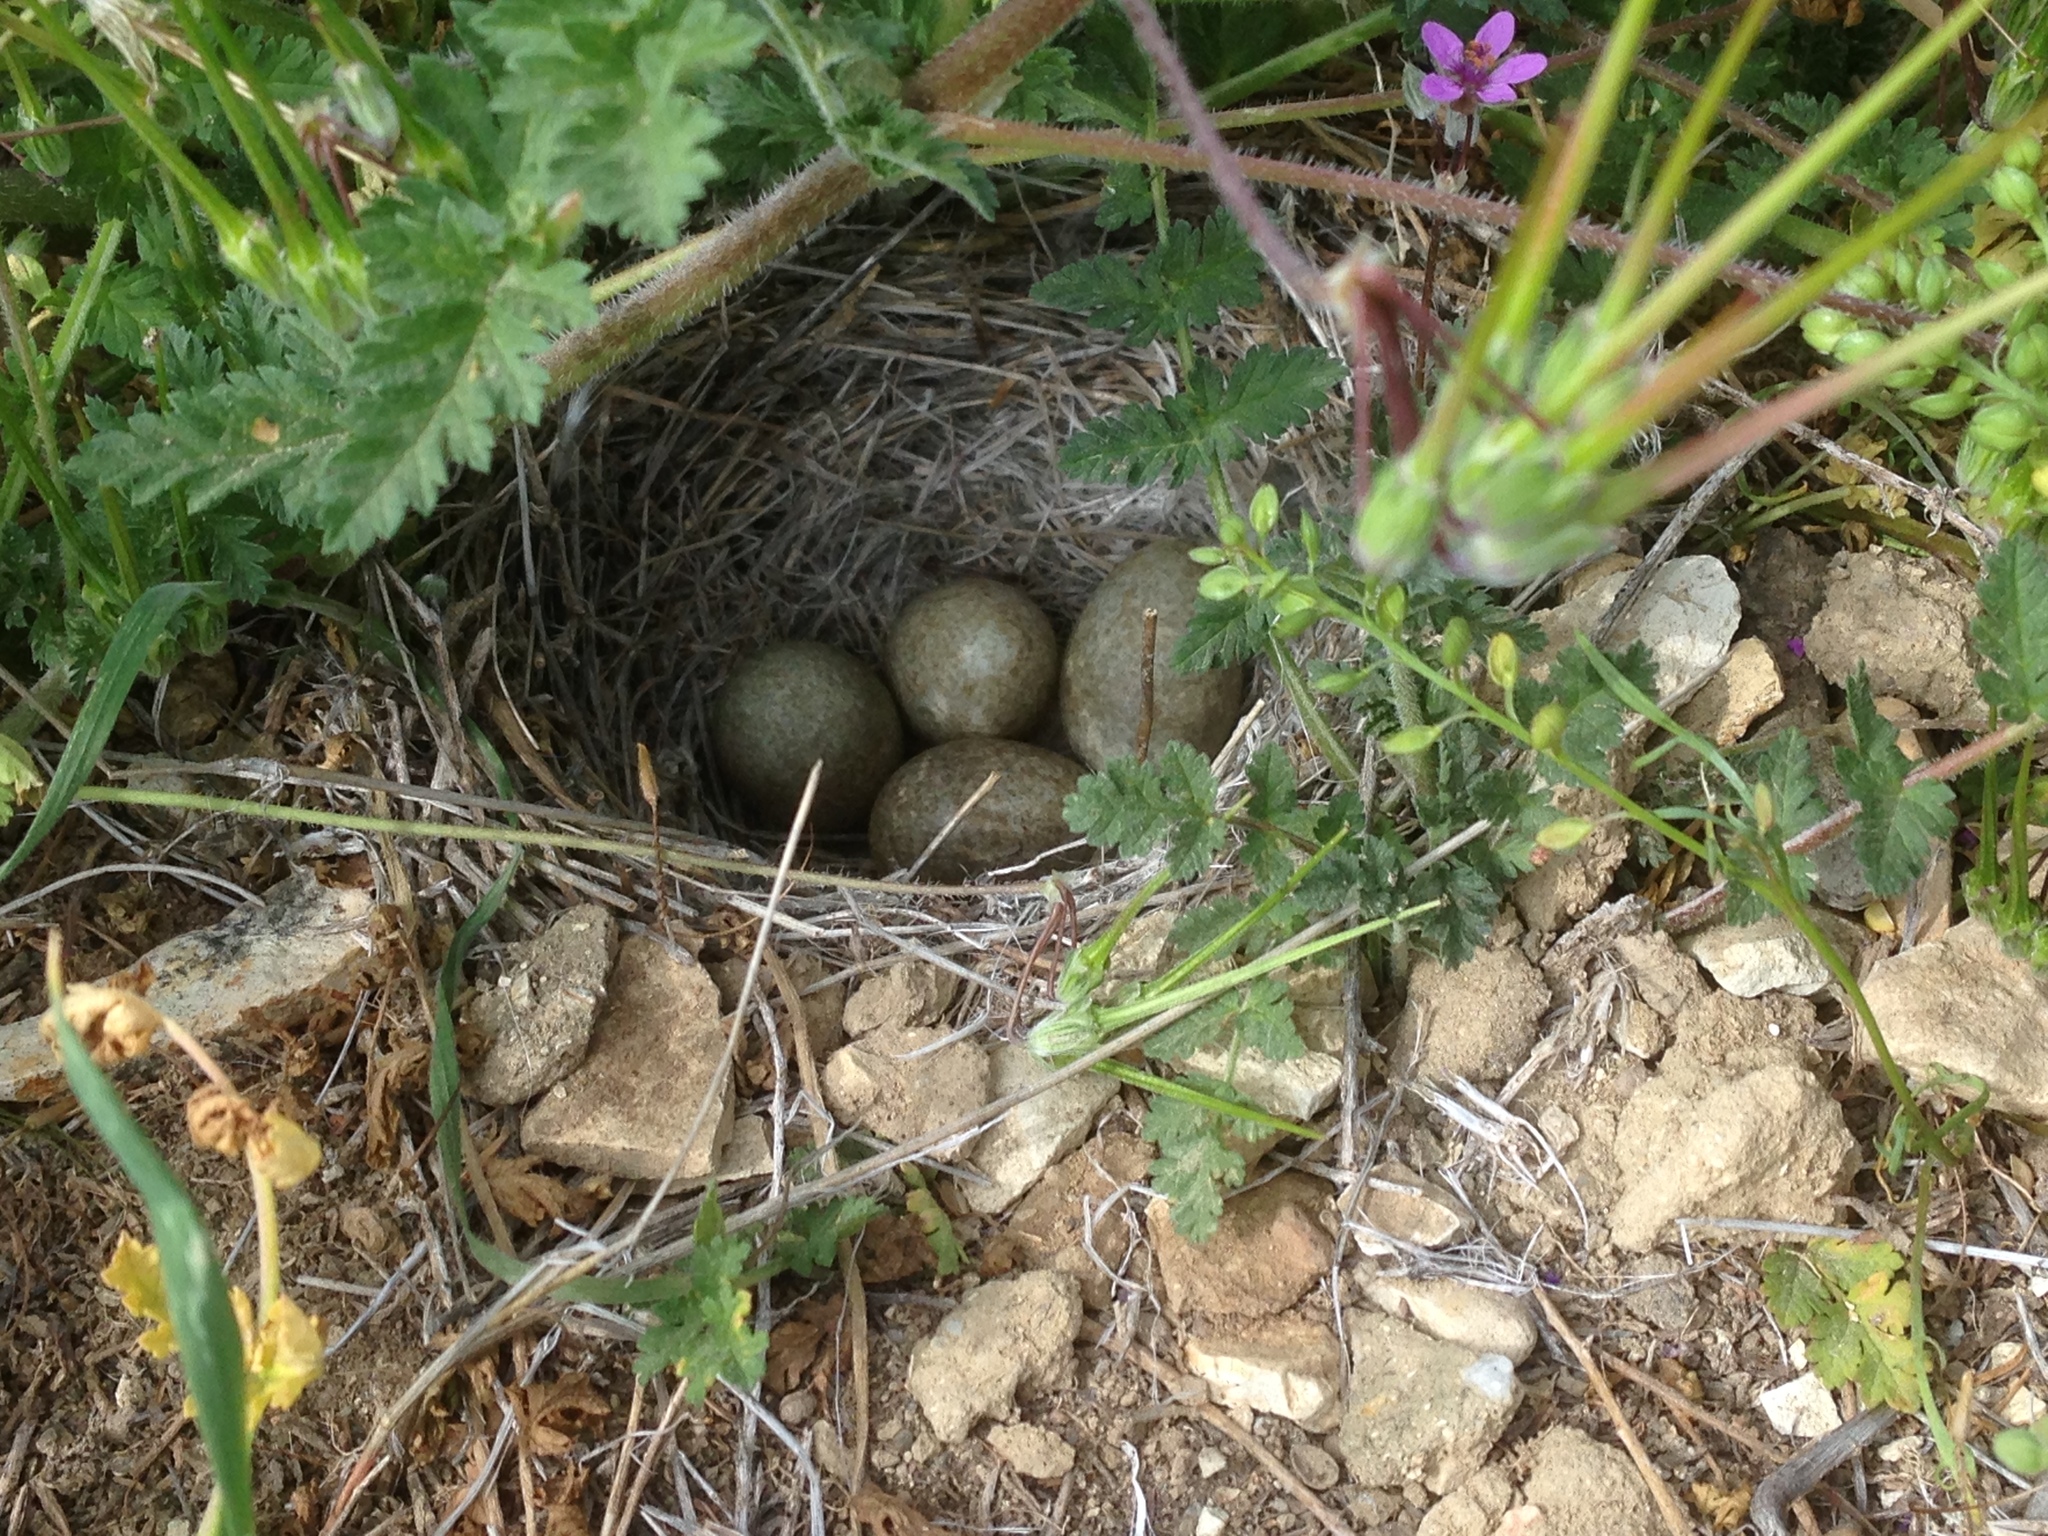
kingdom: Animalia
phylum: Chordata
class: Aves
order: Passeriformes
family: Alaudidae
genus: Eremophila
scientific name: Eremophila alpestris
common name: Horned lark
